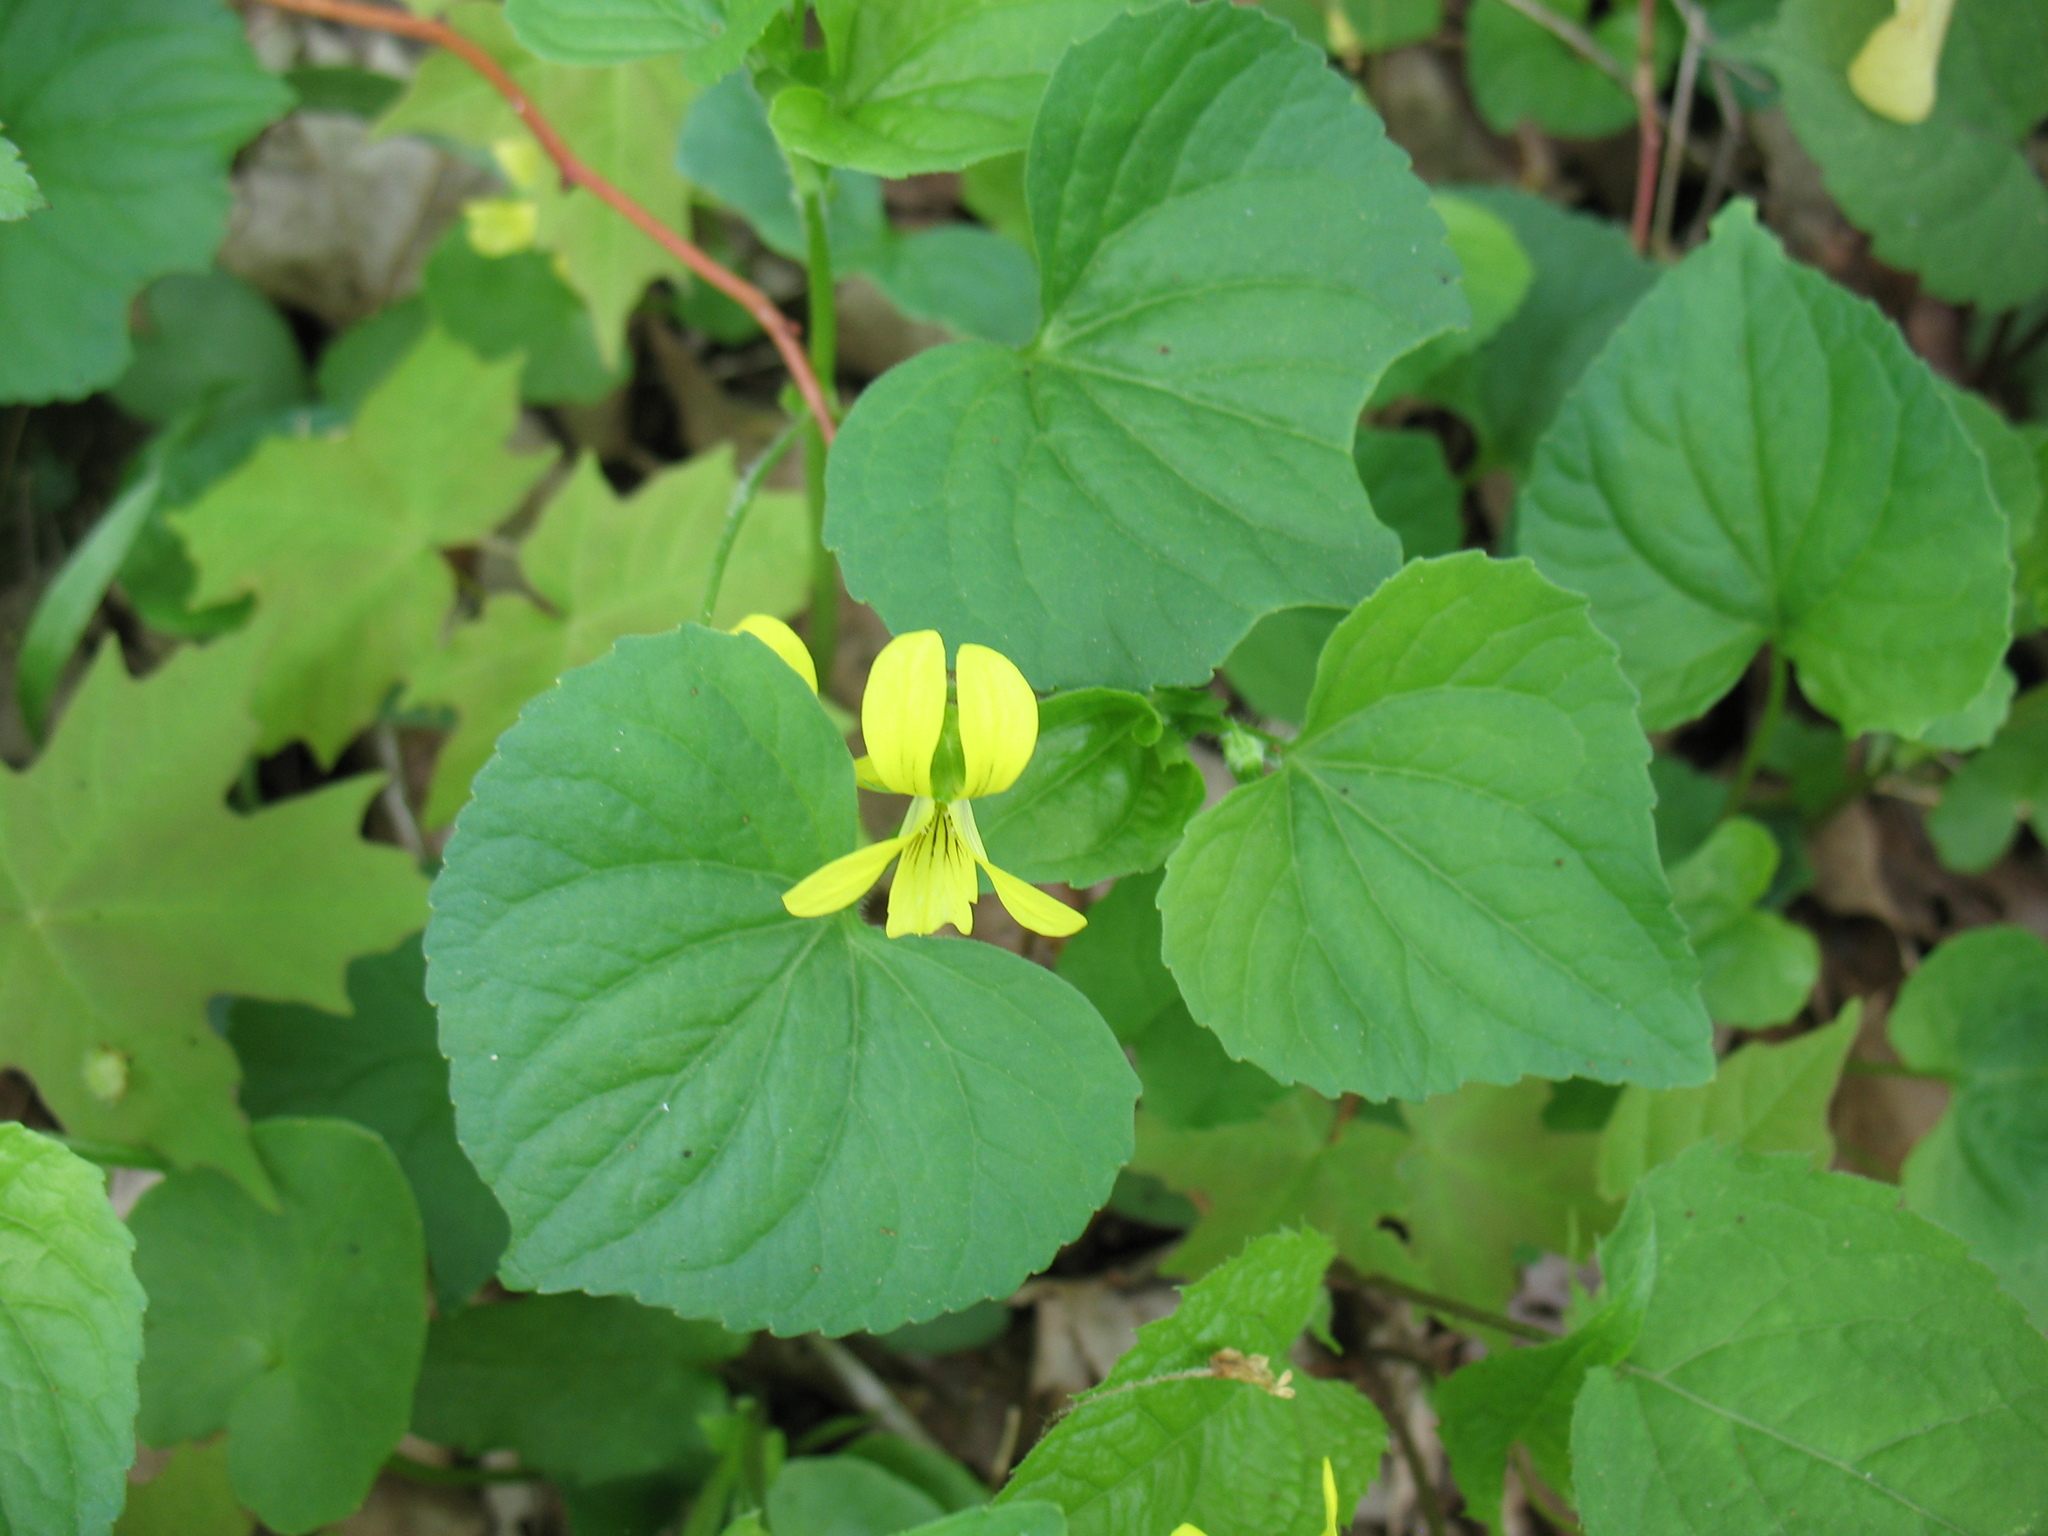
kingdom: Plantae
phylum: Tracheophyta
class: Magnoliopsida
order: Malpighiales
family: Violaceae
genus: Viola
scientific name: Viola eriocarpa
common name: Smooth yellow violet
